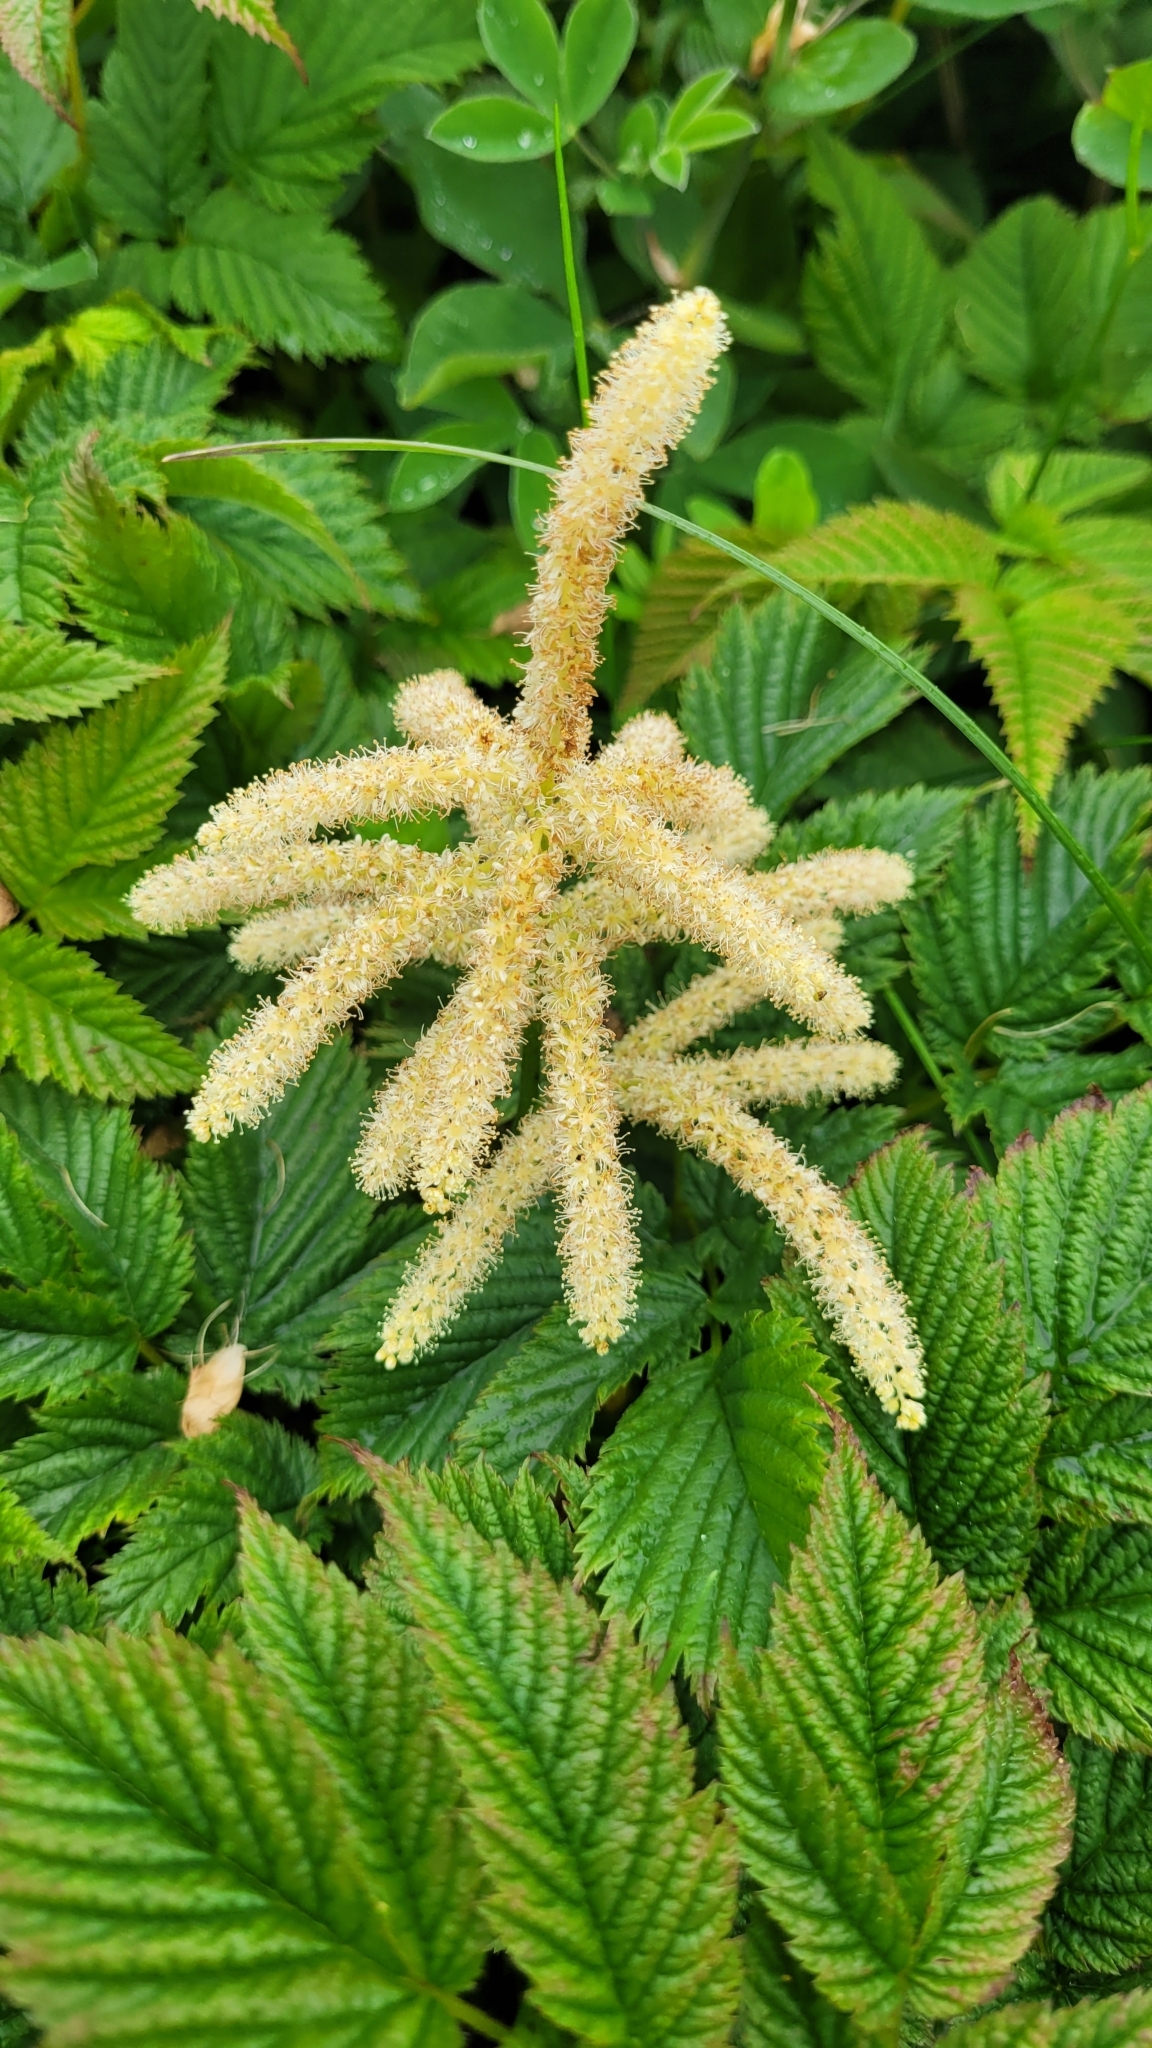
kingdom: Plantae
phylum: Tracheophyta
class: Magnoliopsida
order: Rosales
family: Rosaceae
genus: Aruncus
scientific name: Aruncus dioicus
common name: Buck's-beard
